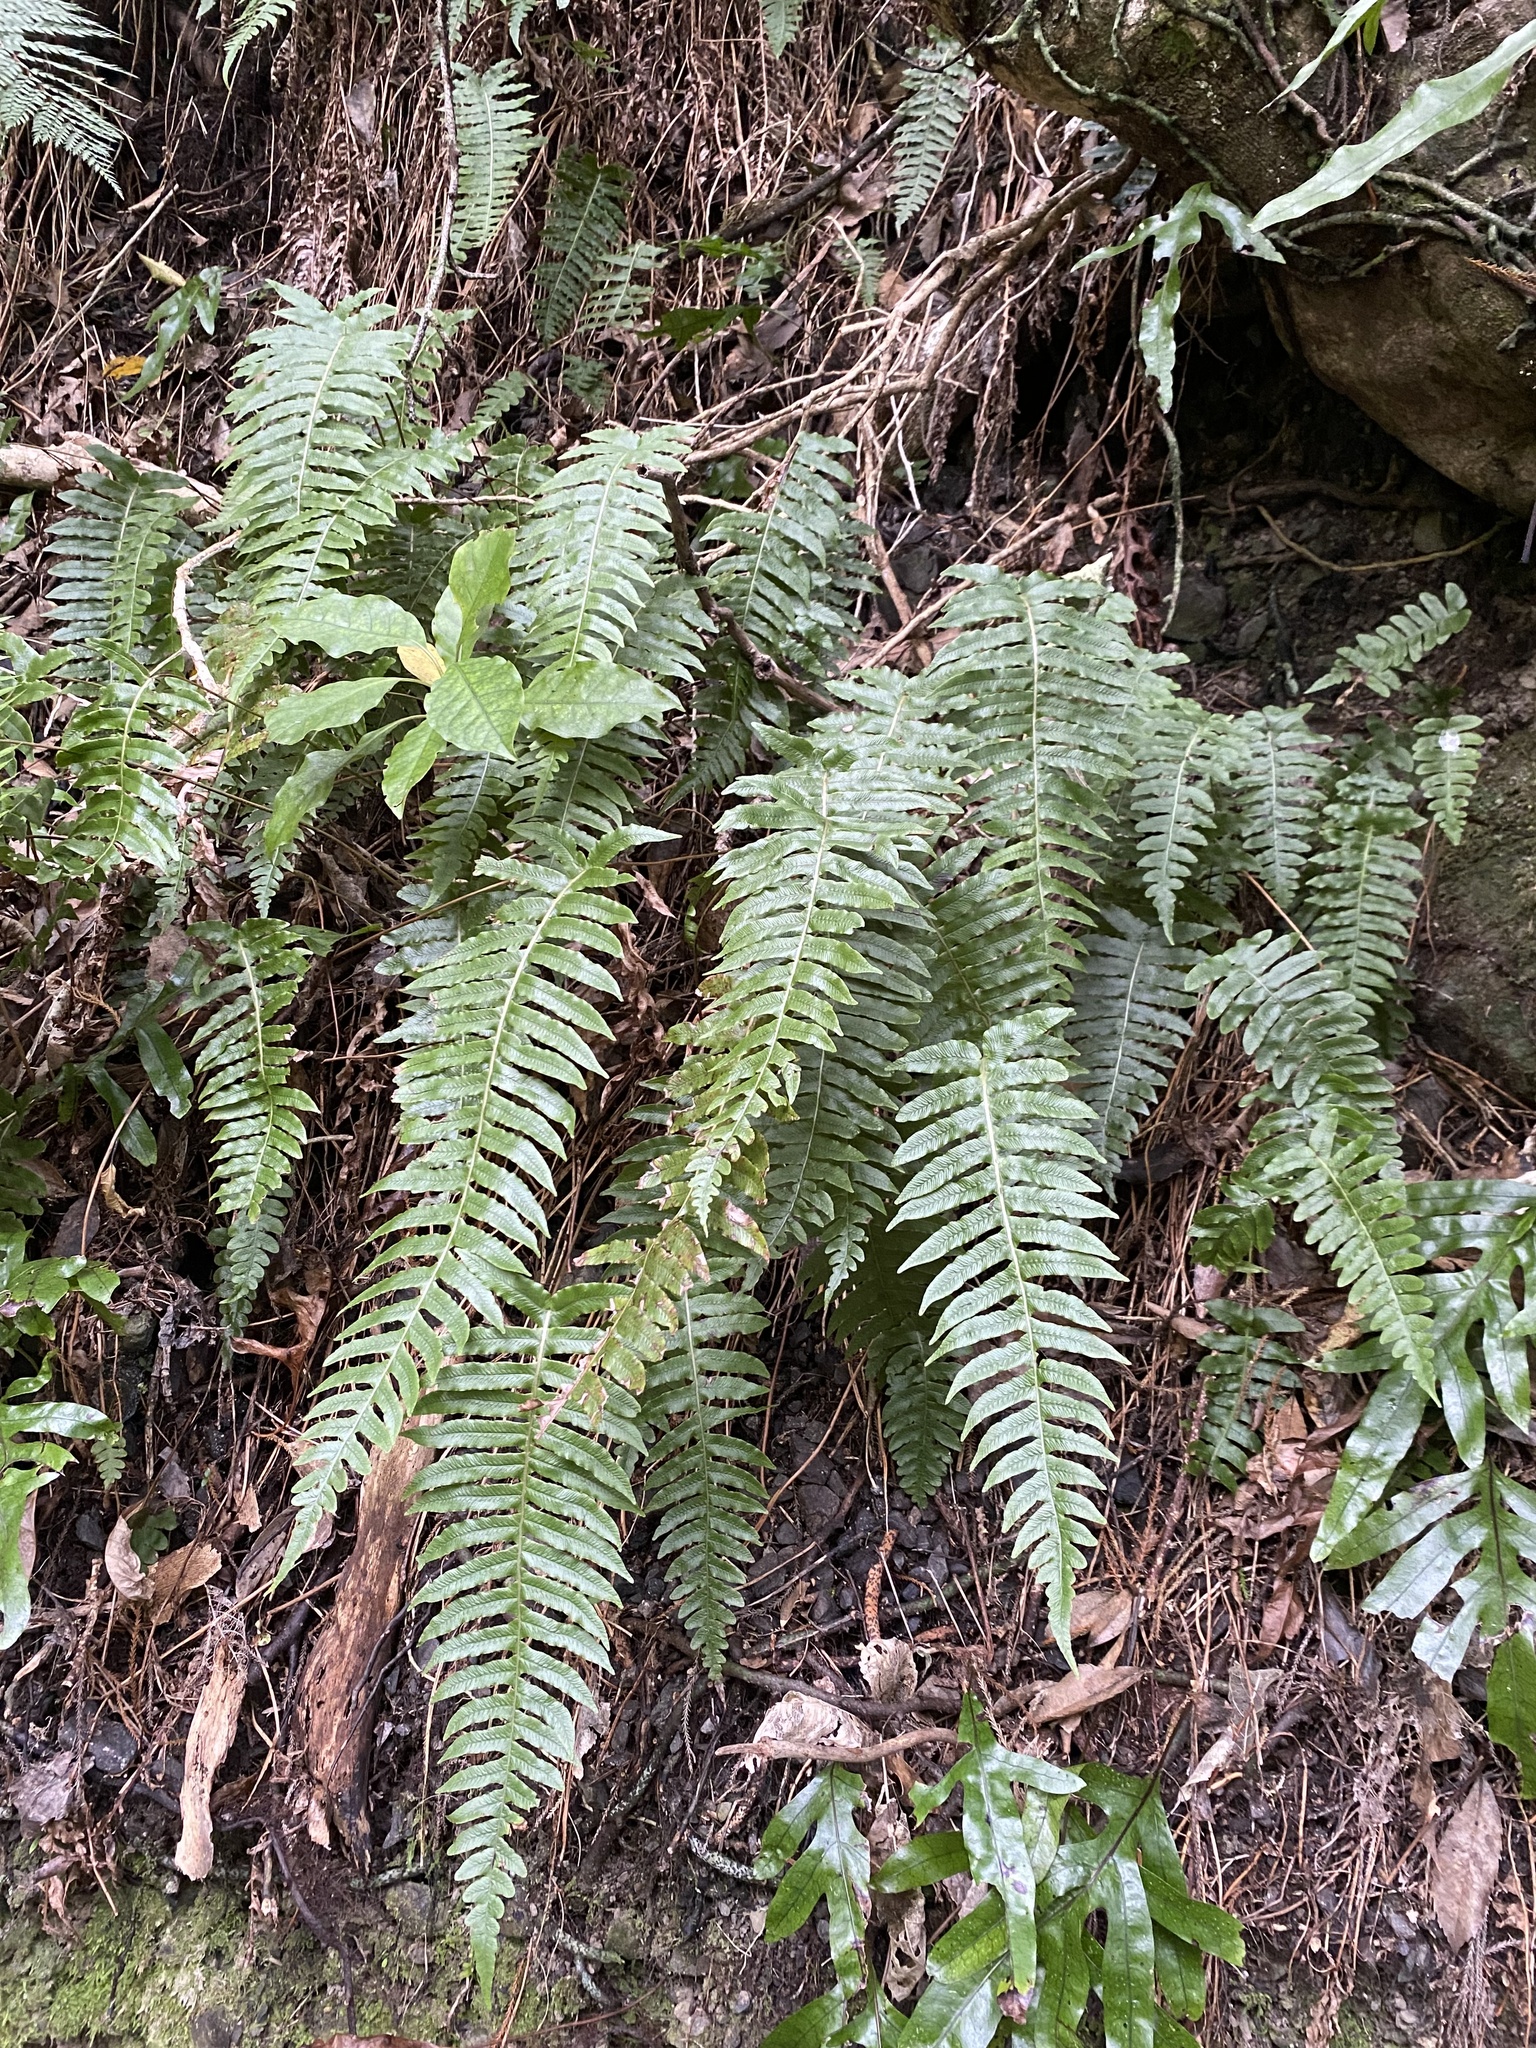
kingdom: Plantae
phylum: Tracheophyta
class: Polypodiopsida
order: Polypodiales
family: Blechnaceae
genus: Cranfillia
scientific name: Cranfillia deltoides
